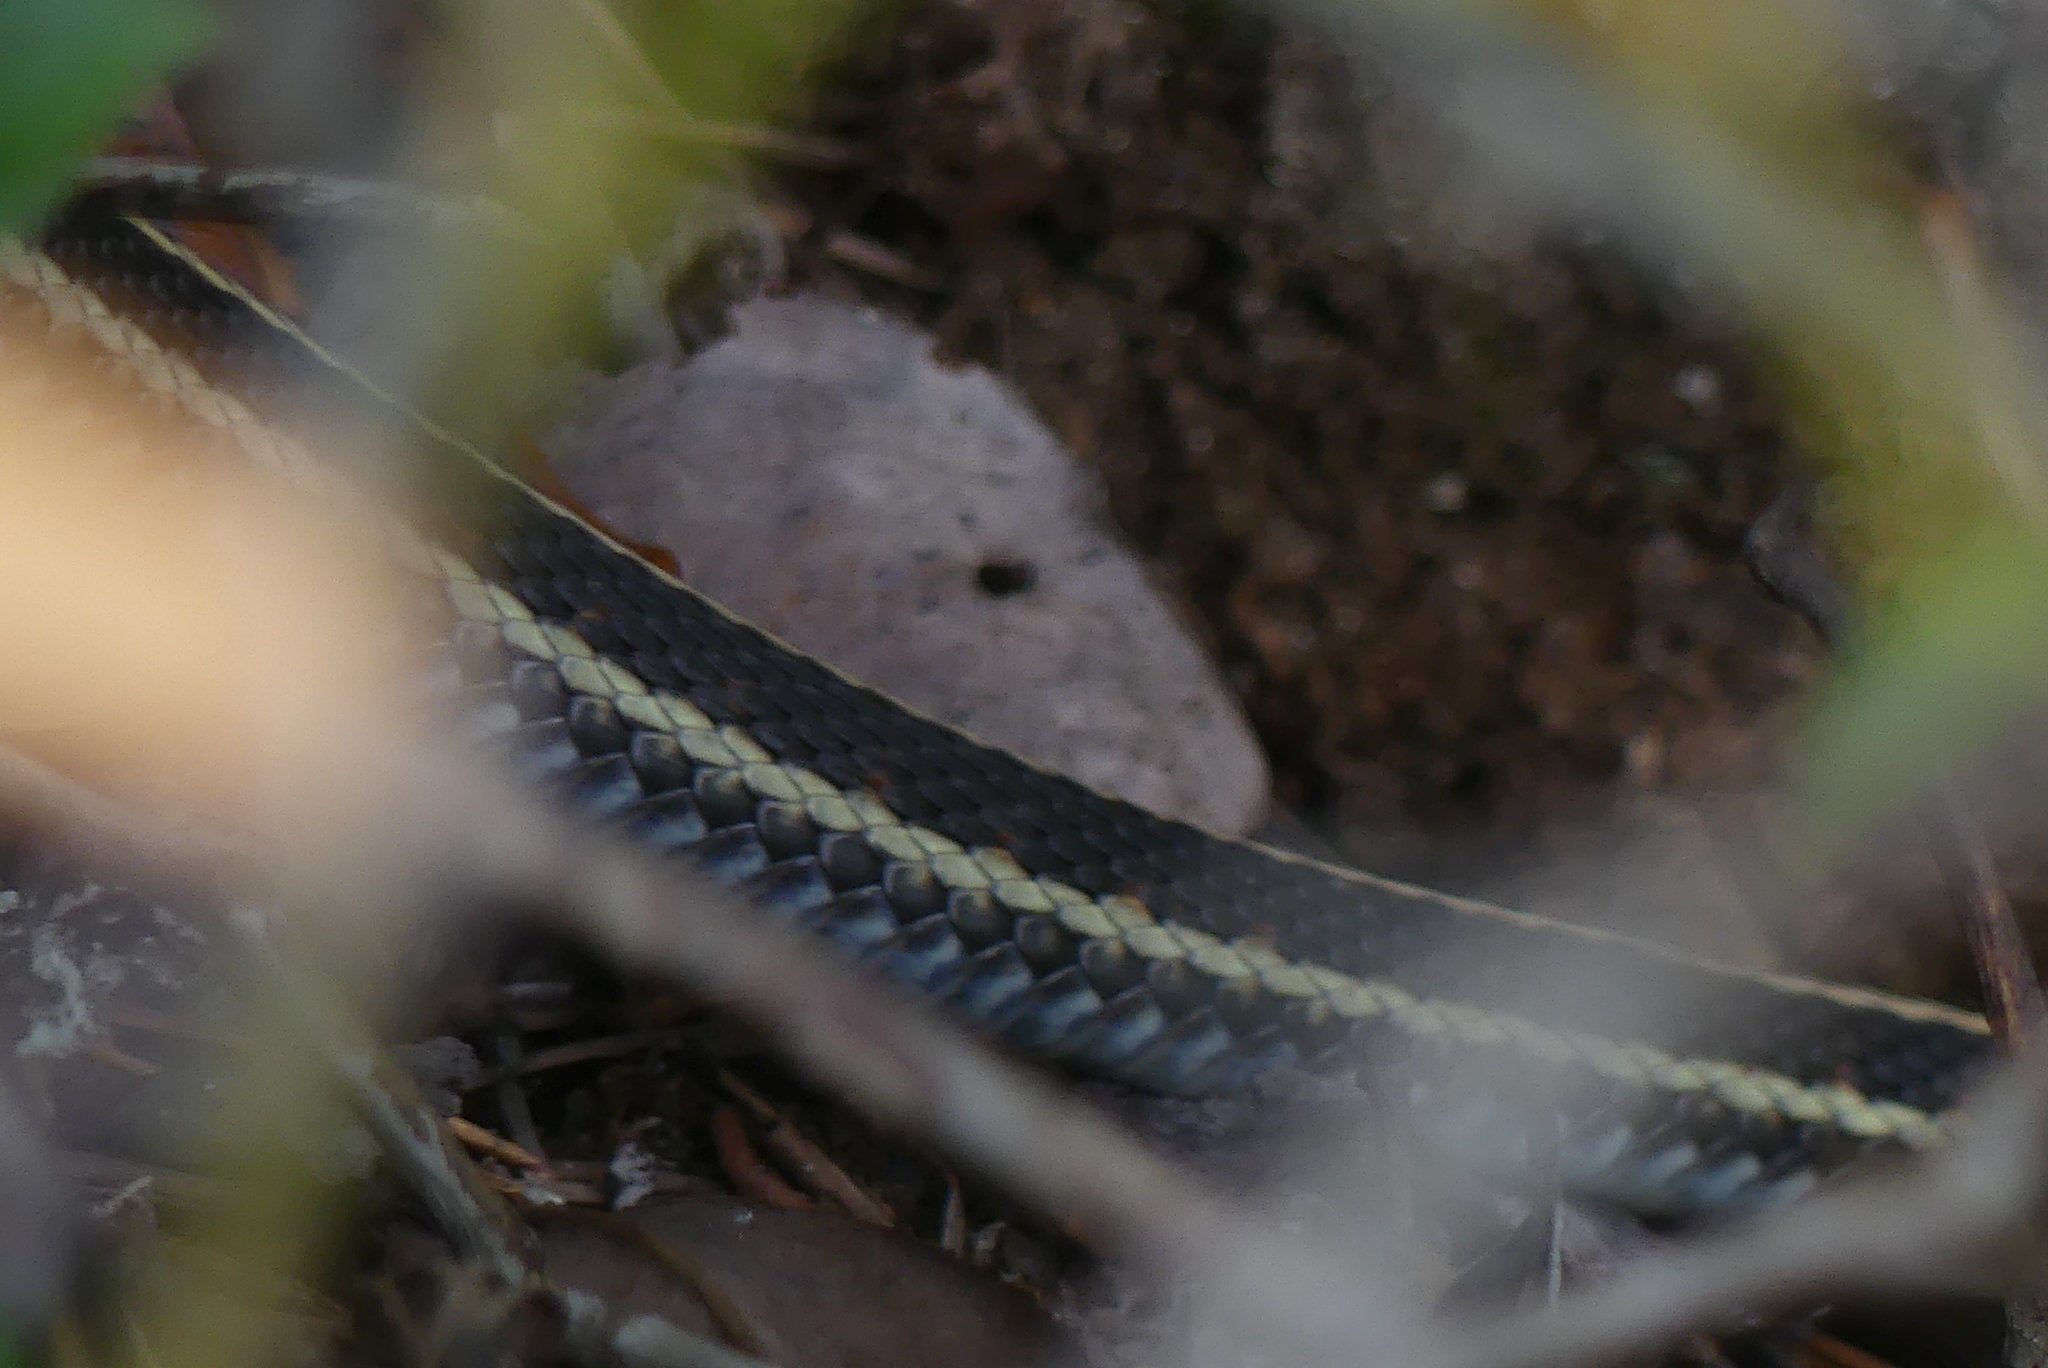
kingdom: Animalia
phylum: Chordata
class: Squamata
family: Colubridae
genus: Thamnophis
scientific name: Thamnophis sirtalis
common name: Common garter snake
